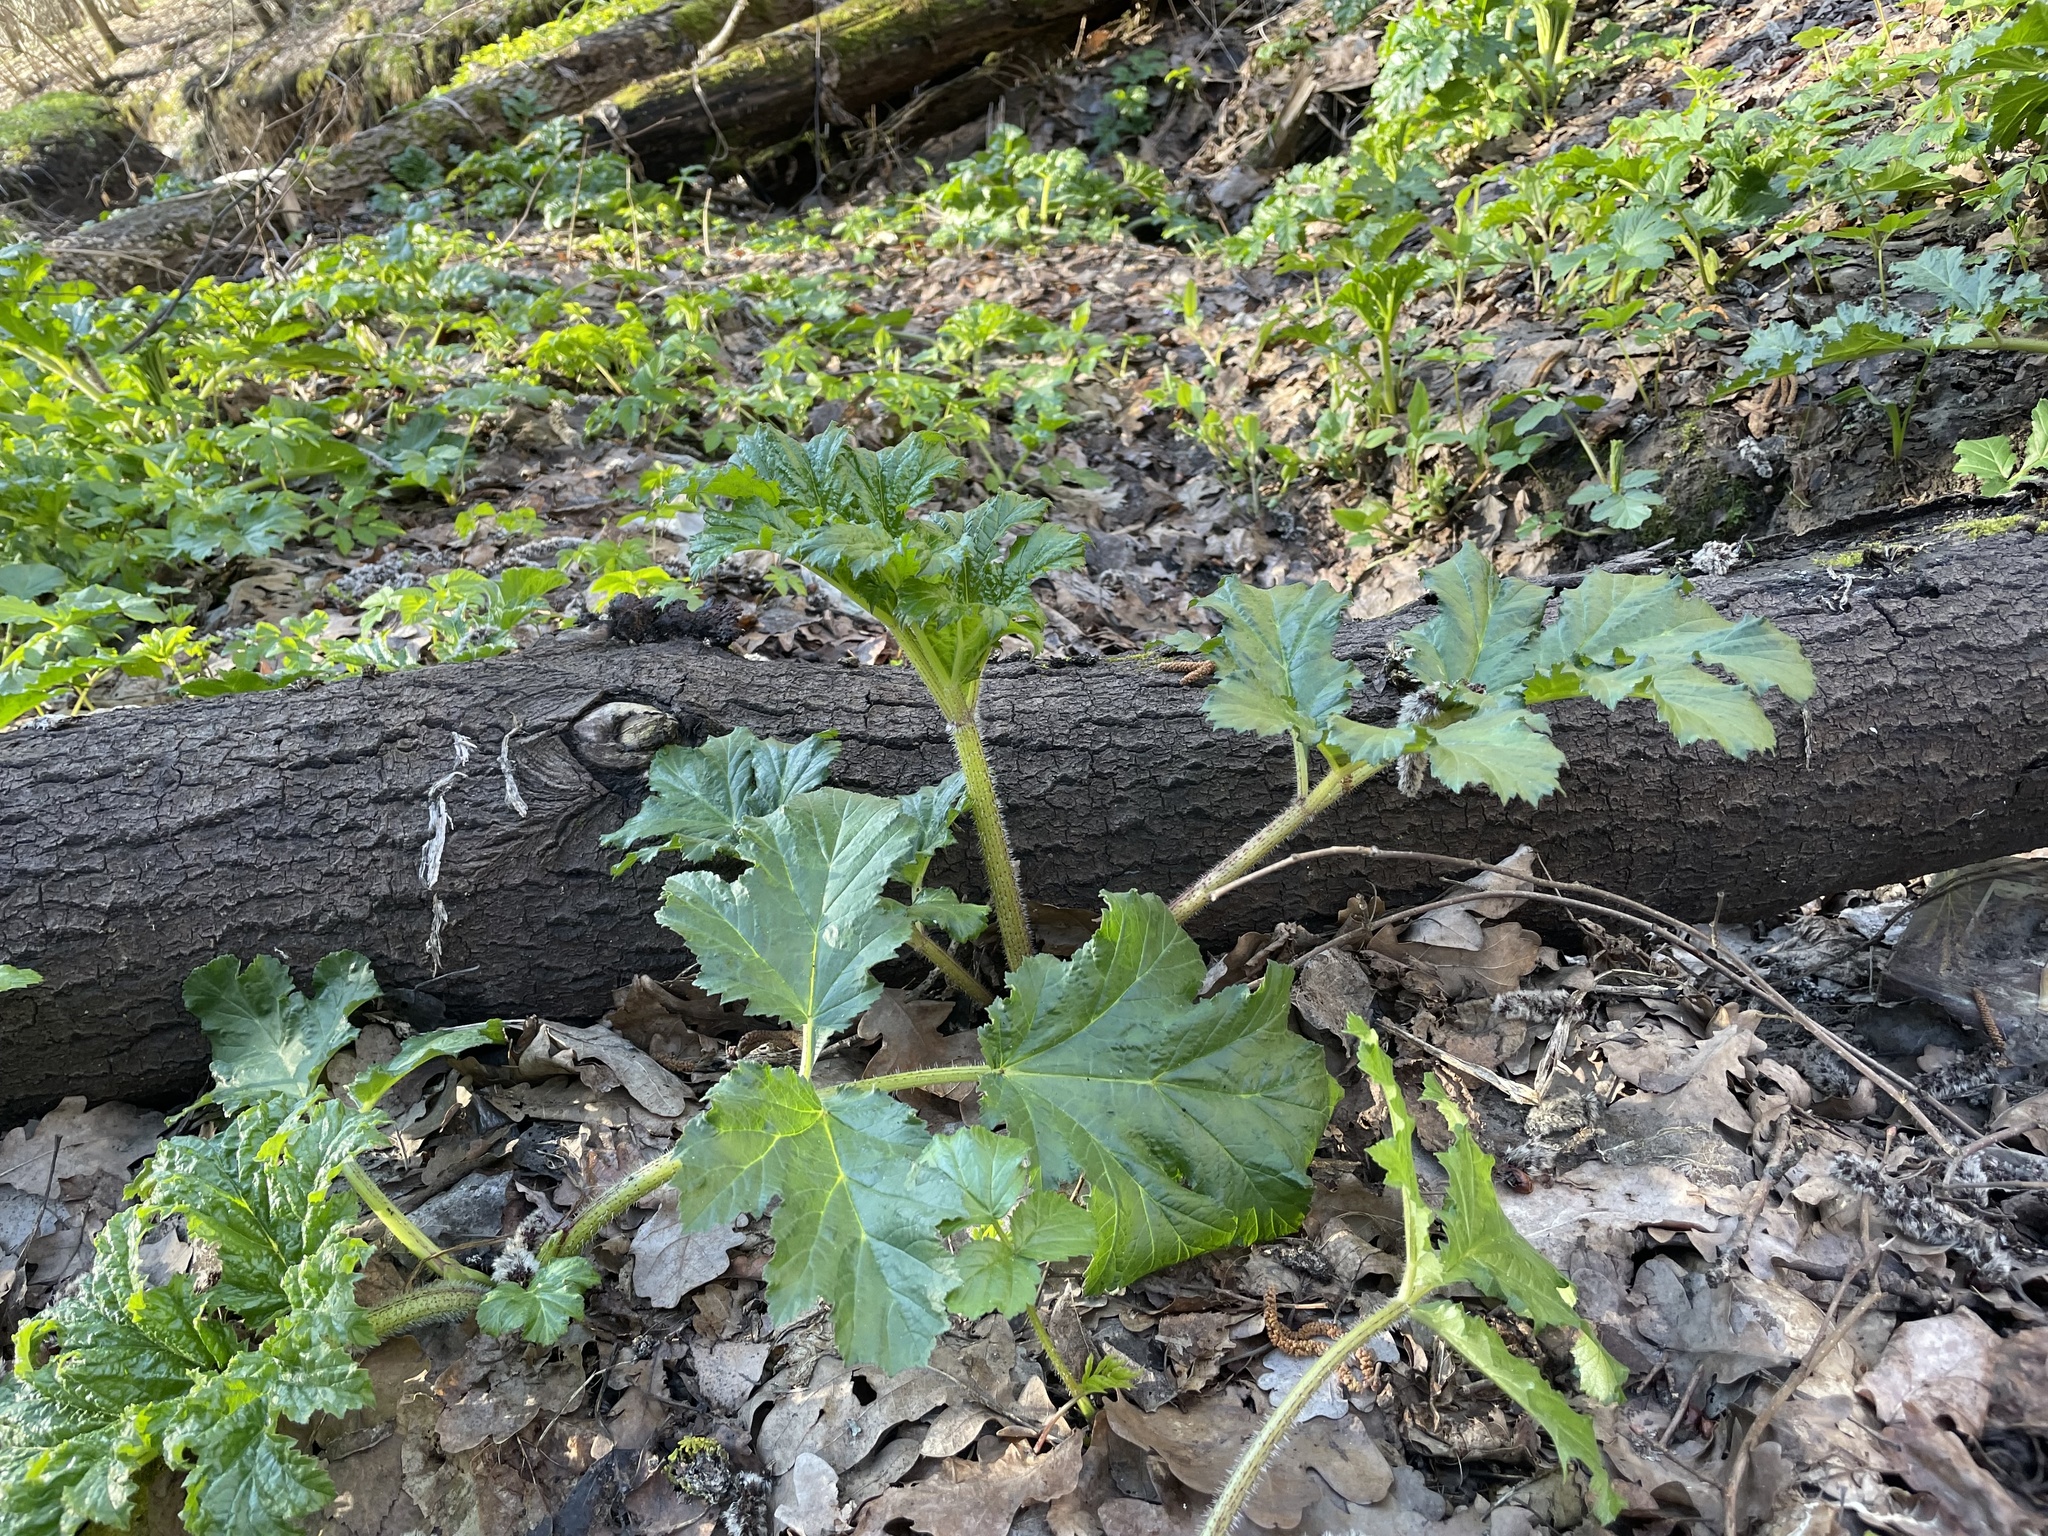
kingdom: Plantae
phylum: Tracheophyta
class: Magnoliopsida
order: Apiales
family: Apiaceae
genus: Heracleum
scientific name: Heracleum sosnowskyi
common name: Sosnowsky's hogweed
